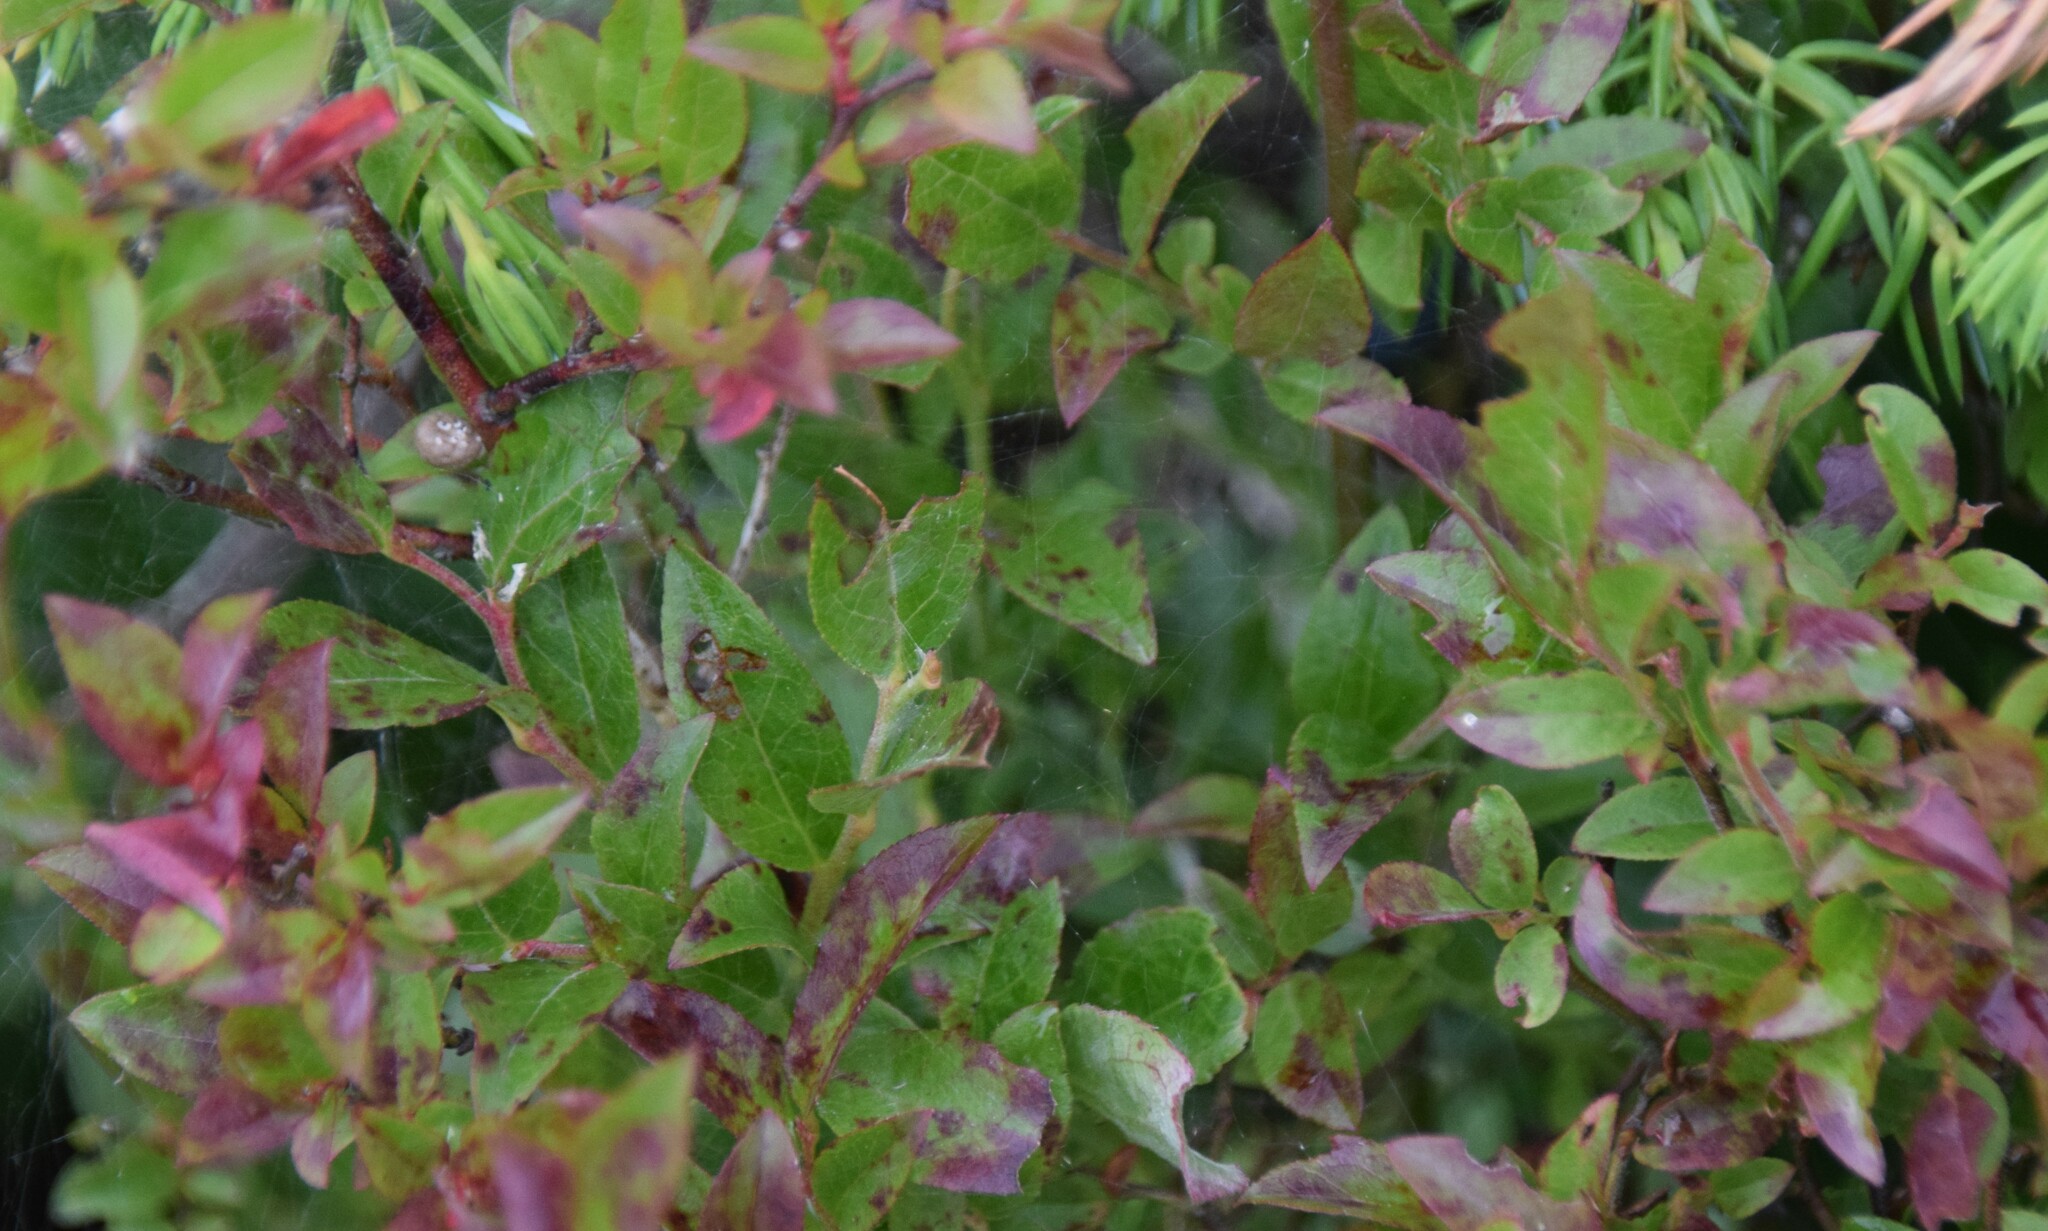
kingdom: Plantae
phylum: Tracheophyta
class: Magnoliopsida
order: Ericales
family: Ericaceae
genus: Vaccinium
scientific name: Vaccinium angustifolium
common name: Early lowbush blueberry
